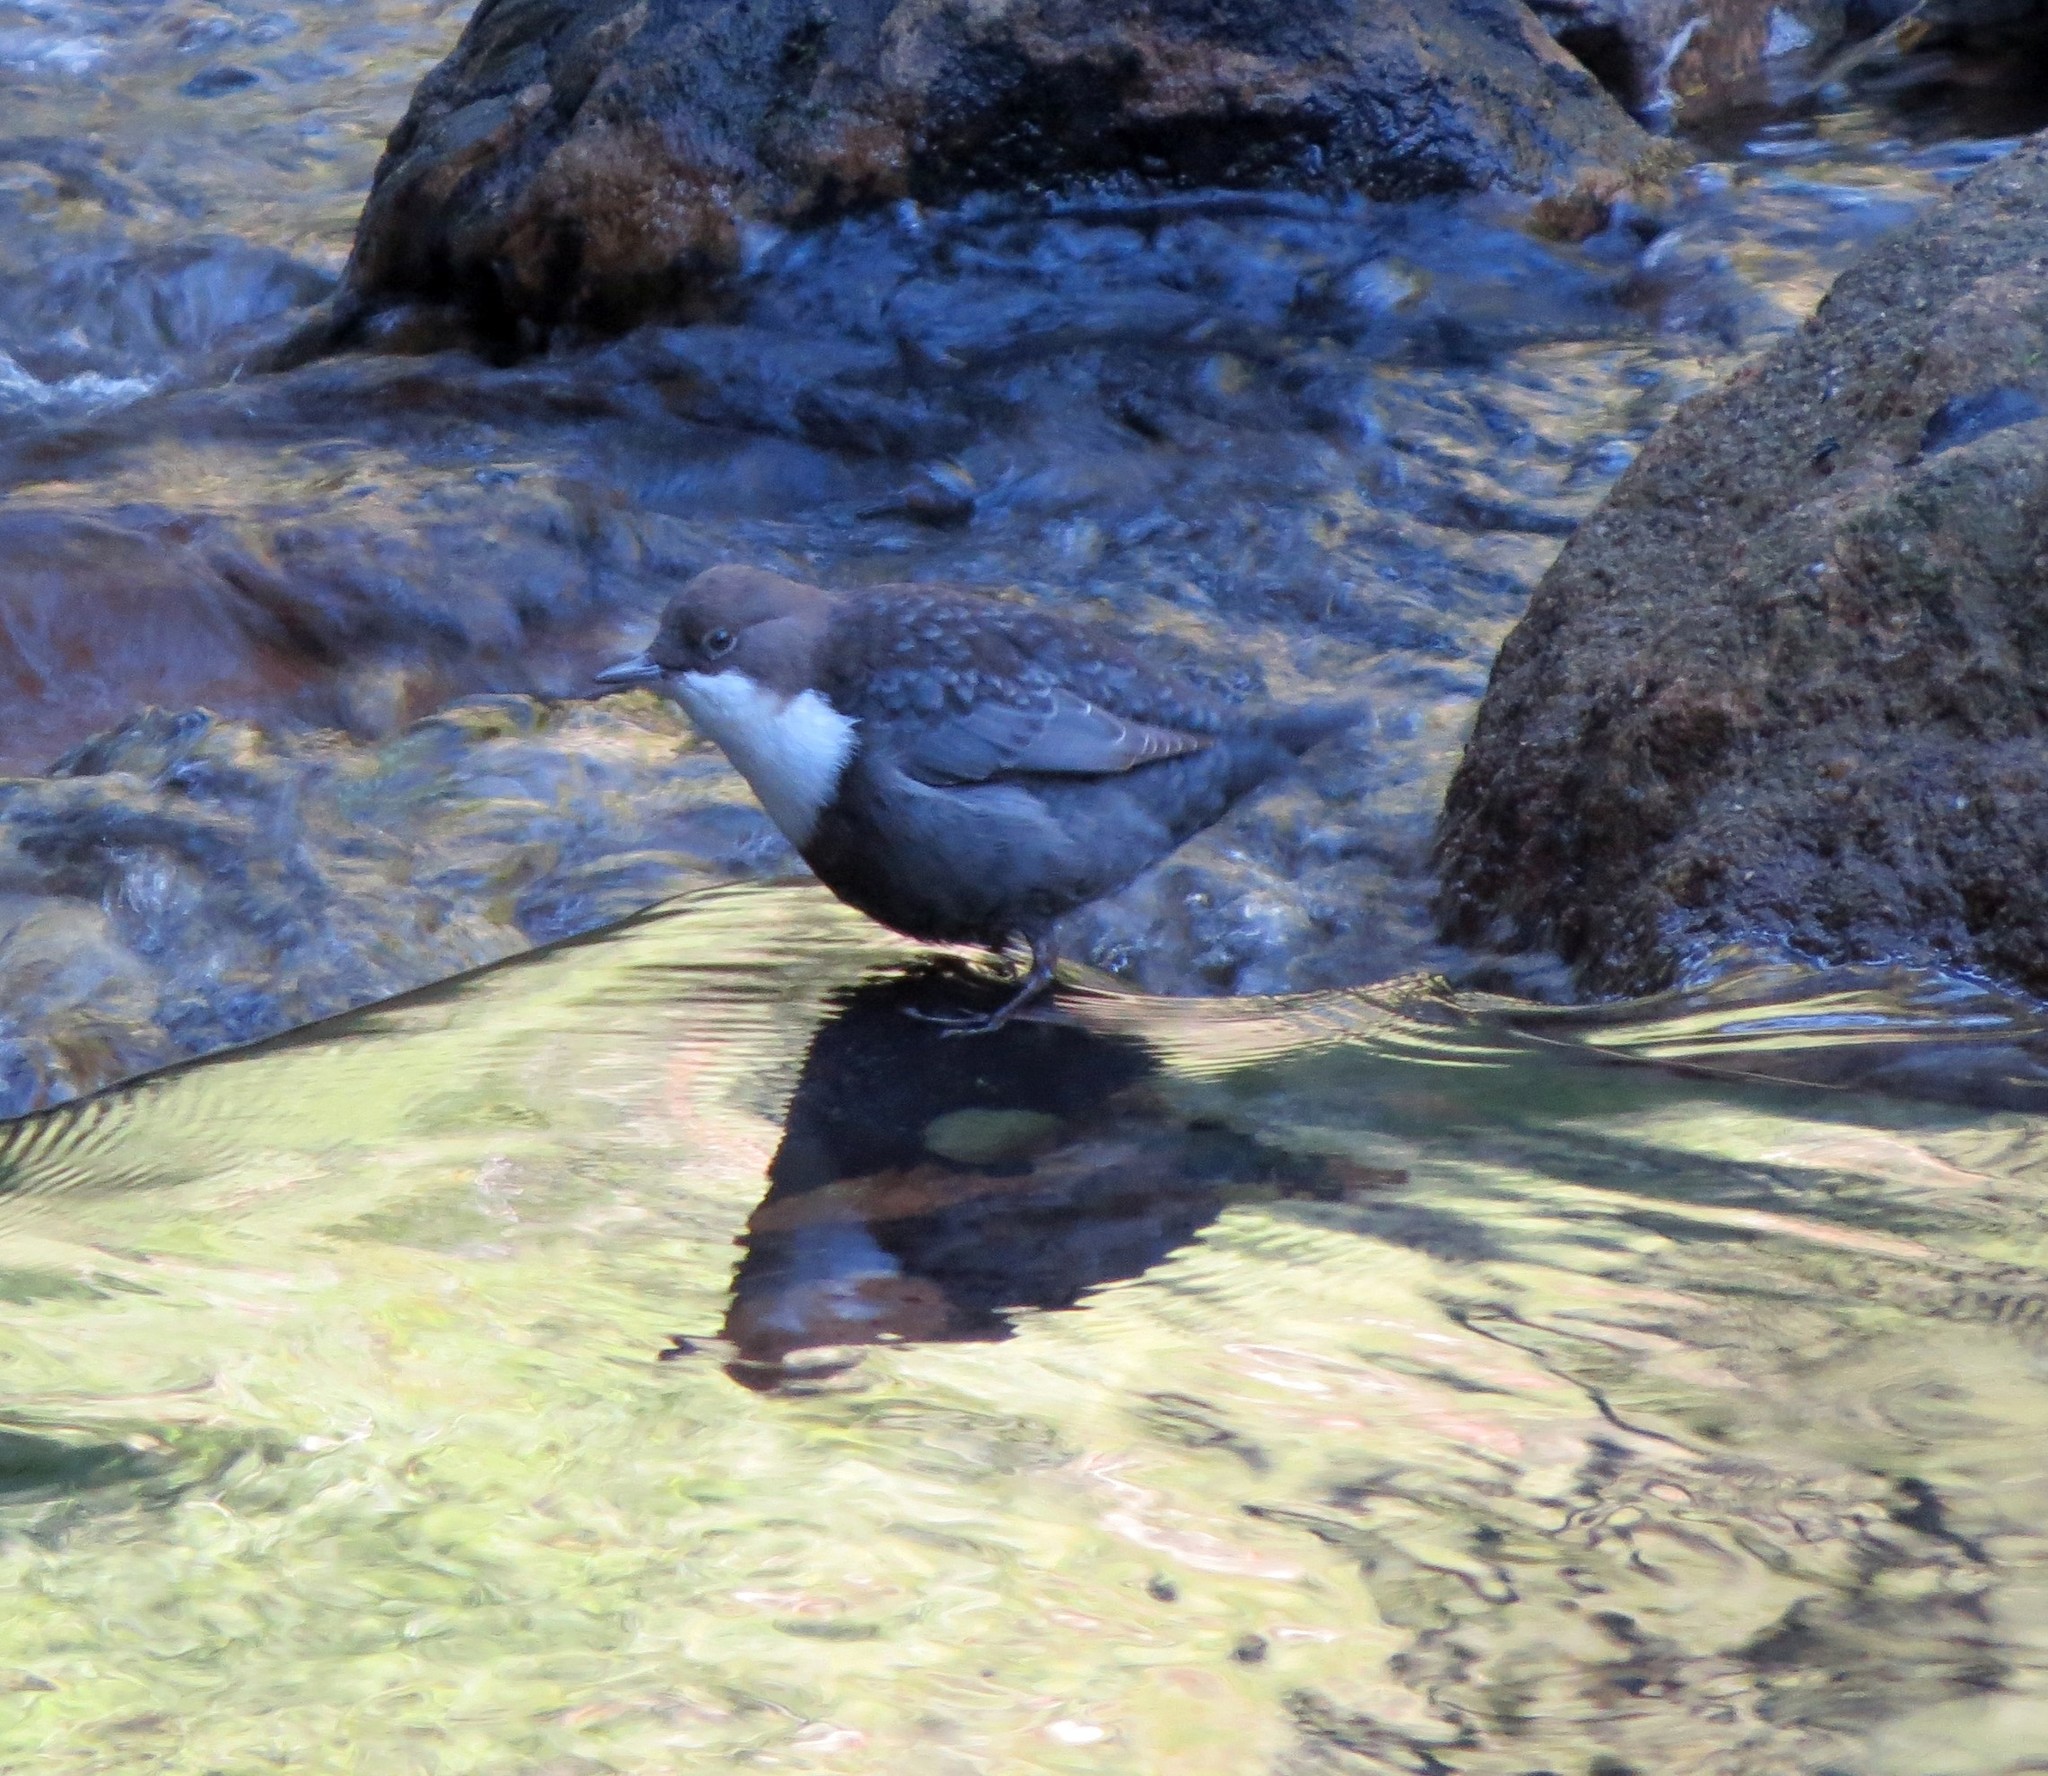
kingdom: Animalia
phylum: Chordata
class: Aves
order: Passeriformes
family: Cinclidae
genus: Cinclus
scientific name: Cinclus cinclus
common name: White-throated dipper
